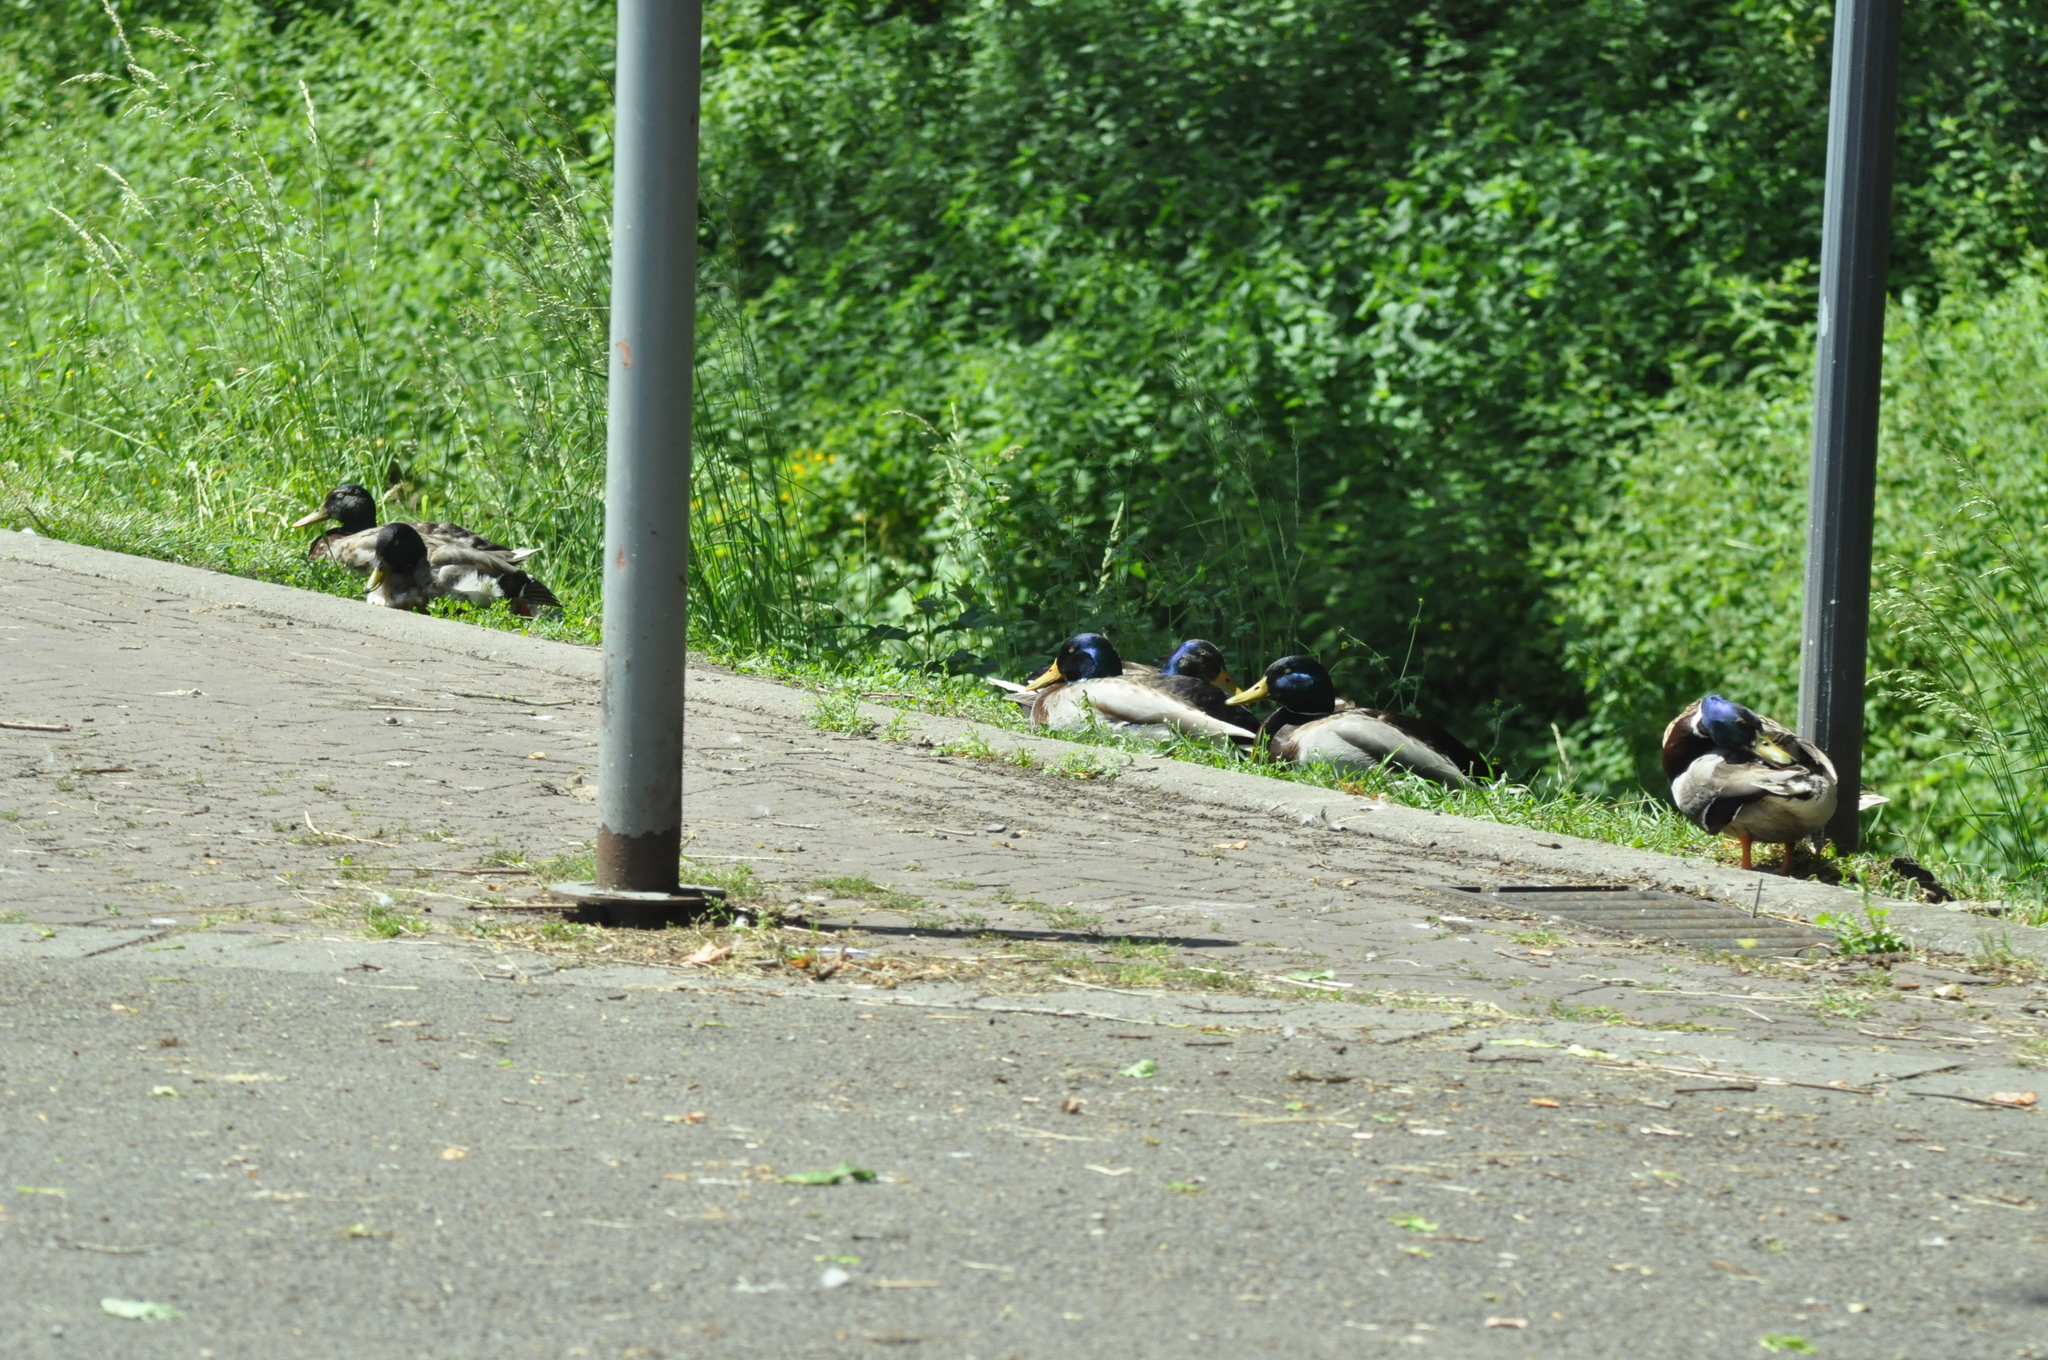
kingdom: Animalia
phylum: Chordata
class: Aves
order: Anseriformes
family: Anatidae
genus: Anas
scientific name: Anas platyrhynchos
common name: Mallard
